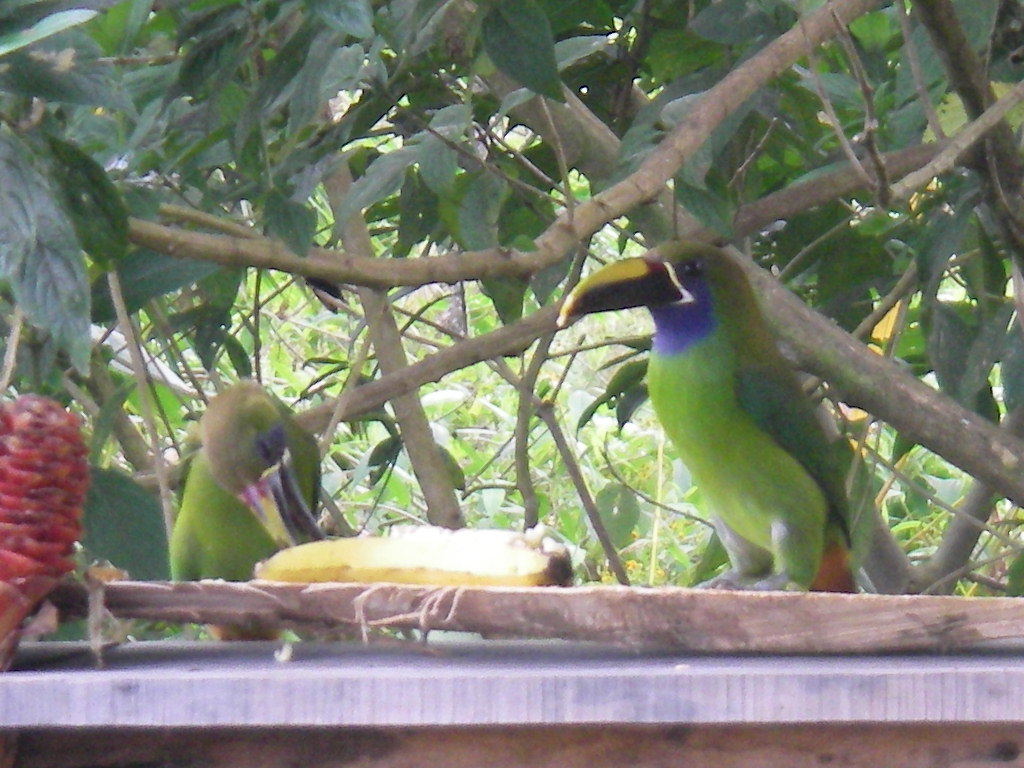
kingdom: Animalia
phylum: Chordata
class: Aves
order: Piciformes
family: Ramphastidae
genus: Aulacorhynchus
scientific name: Aulacorhynchus prasinus
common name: Emerald toucanet
